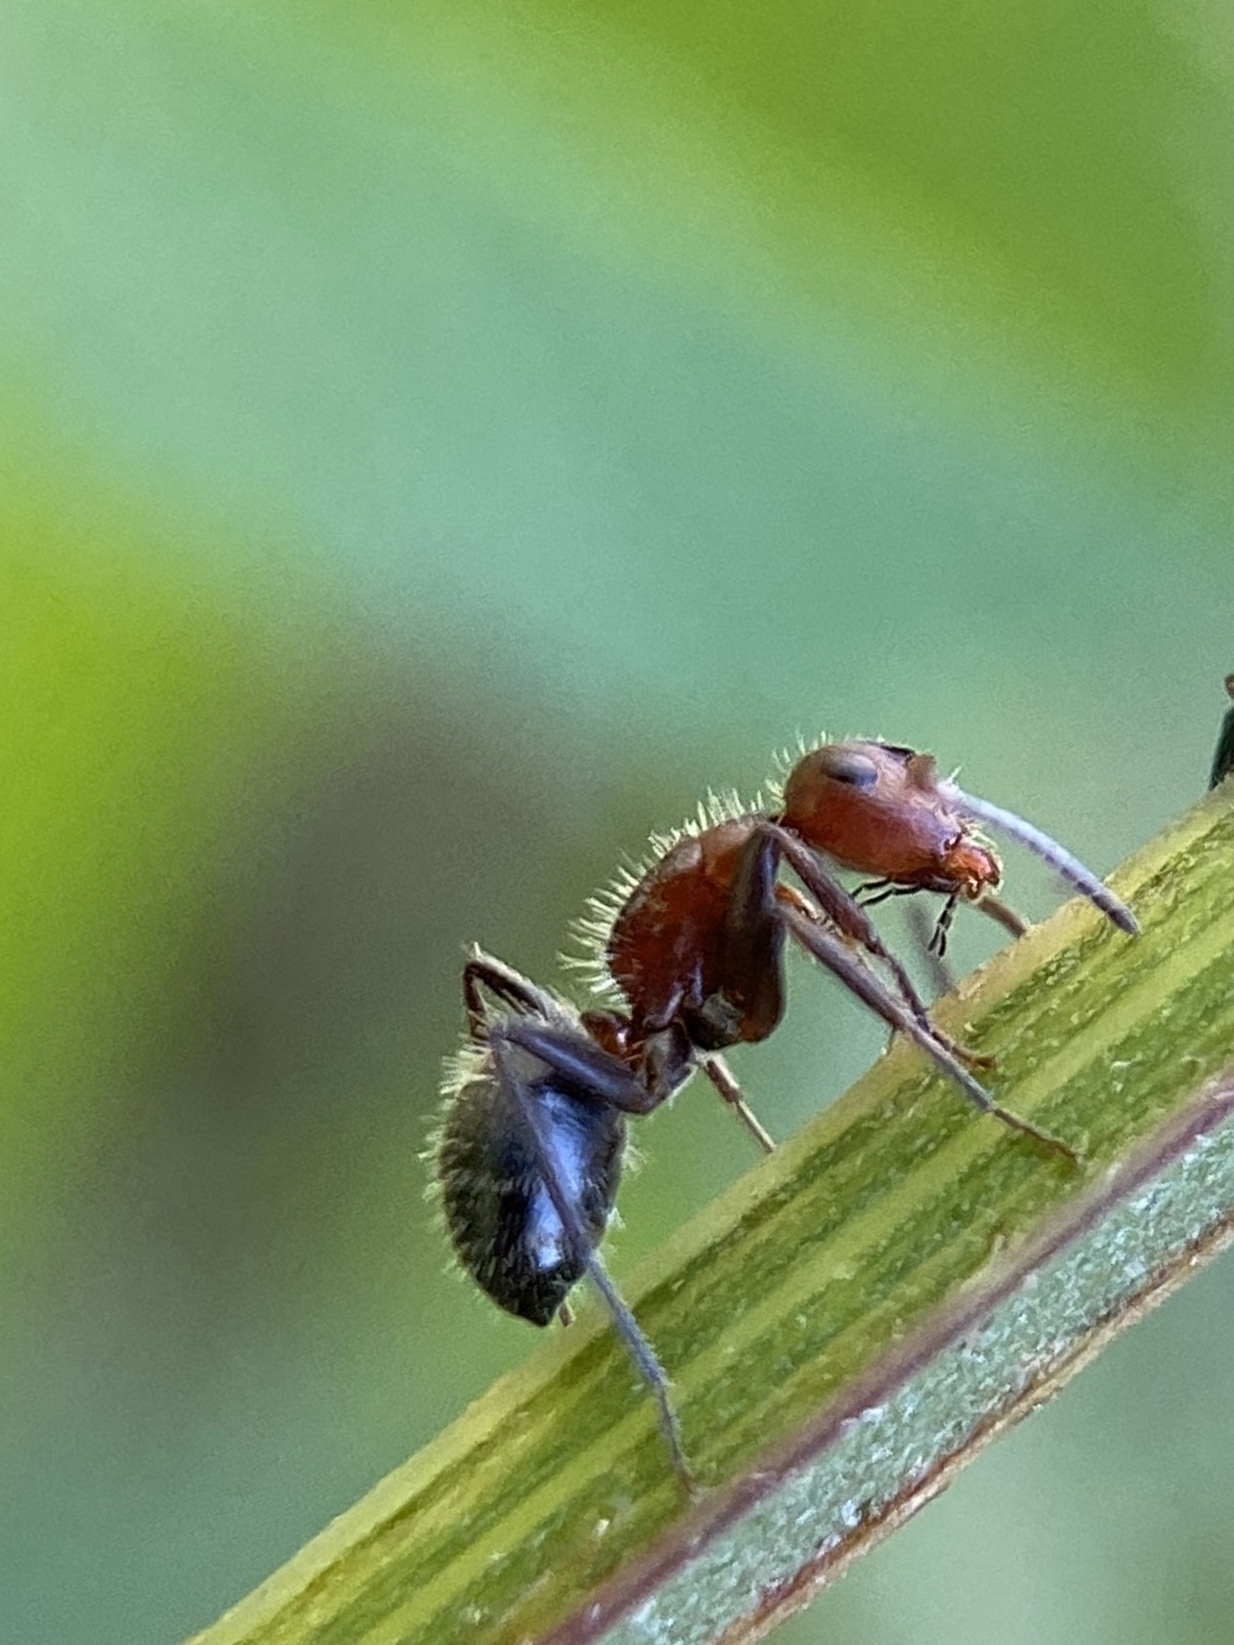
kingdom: Animalia
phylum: Arthropoda
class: Insecta
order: Hymenoptera
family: Formicidae
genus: Camponotus
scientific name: Camponotus planatus
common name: Compact carpenter ant
